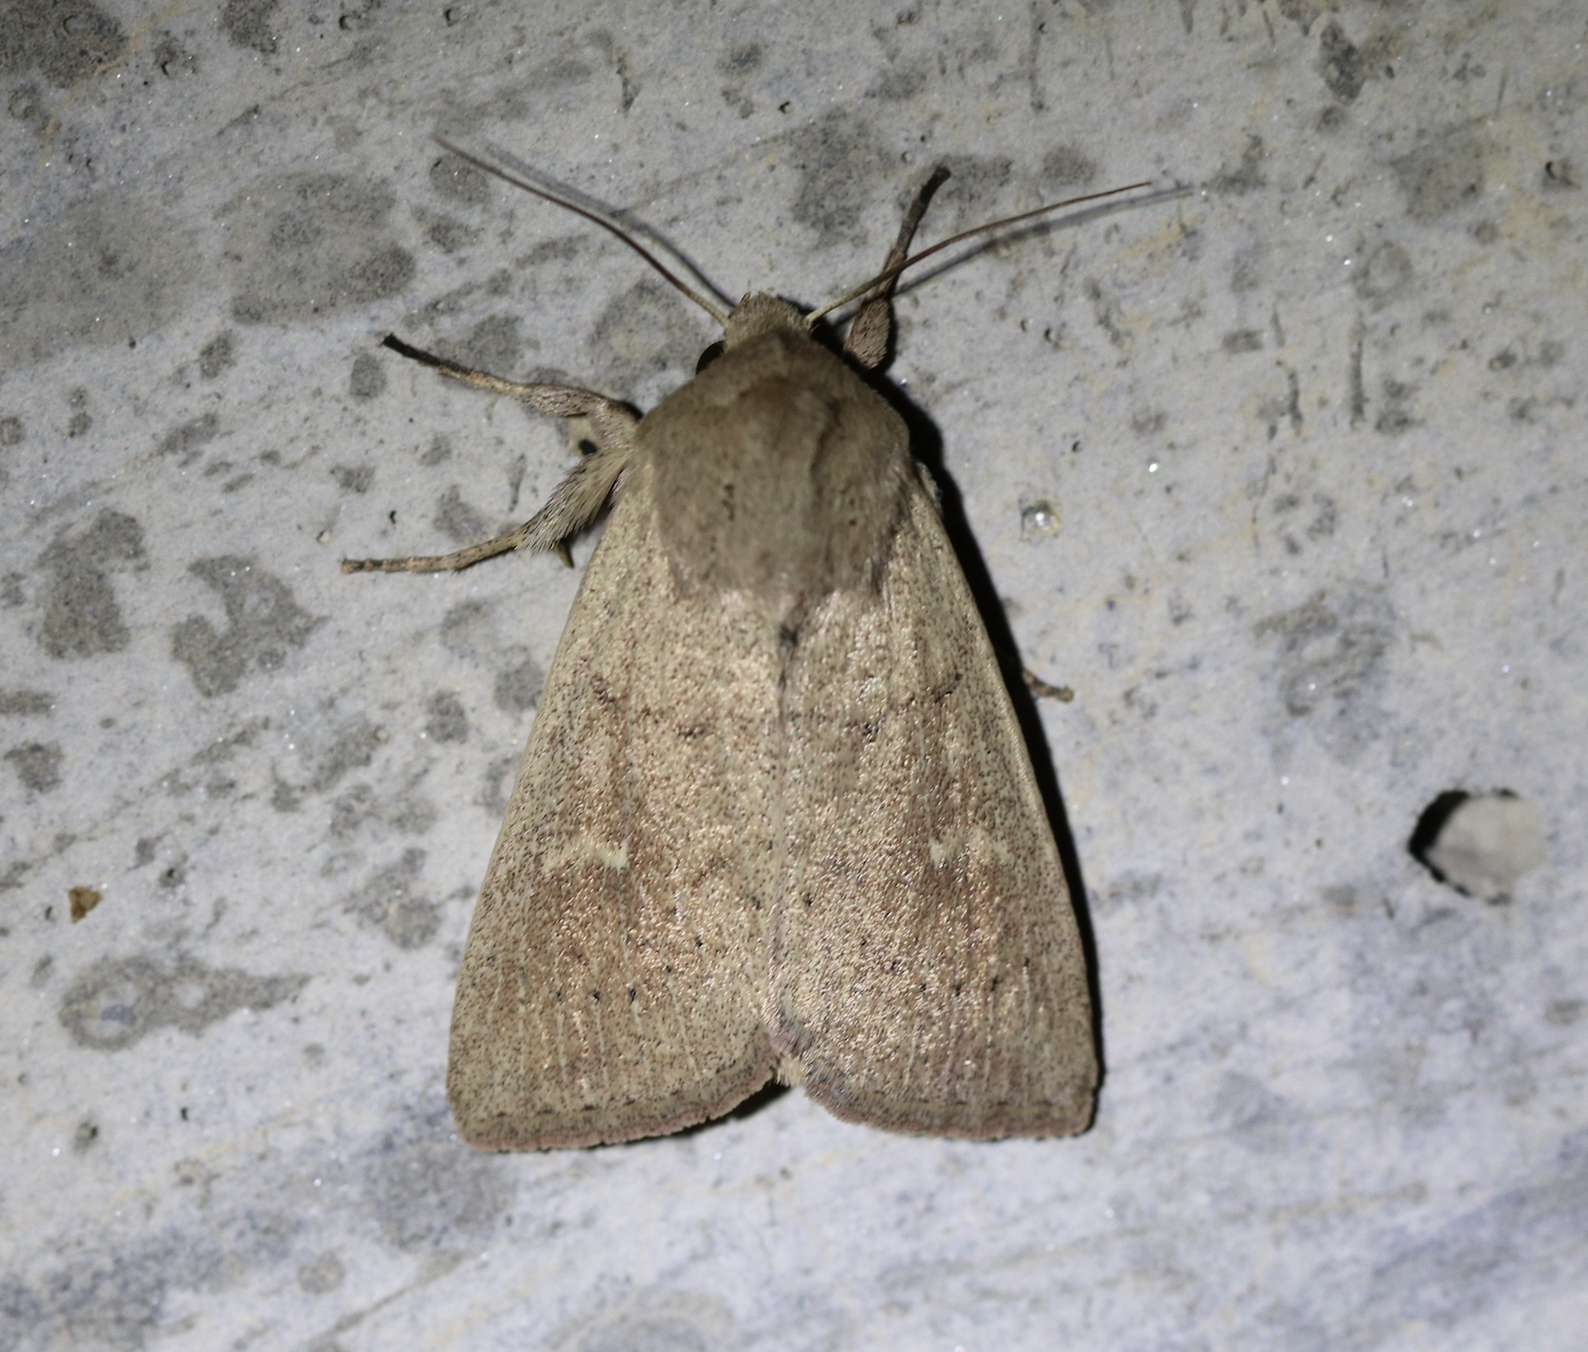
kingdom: Animalia
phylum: Arthropoda
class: Insecta
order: Lepidoptera
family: Noctuidae
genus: Mythimna
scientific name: Mythimna ferrago
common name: Clay
